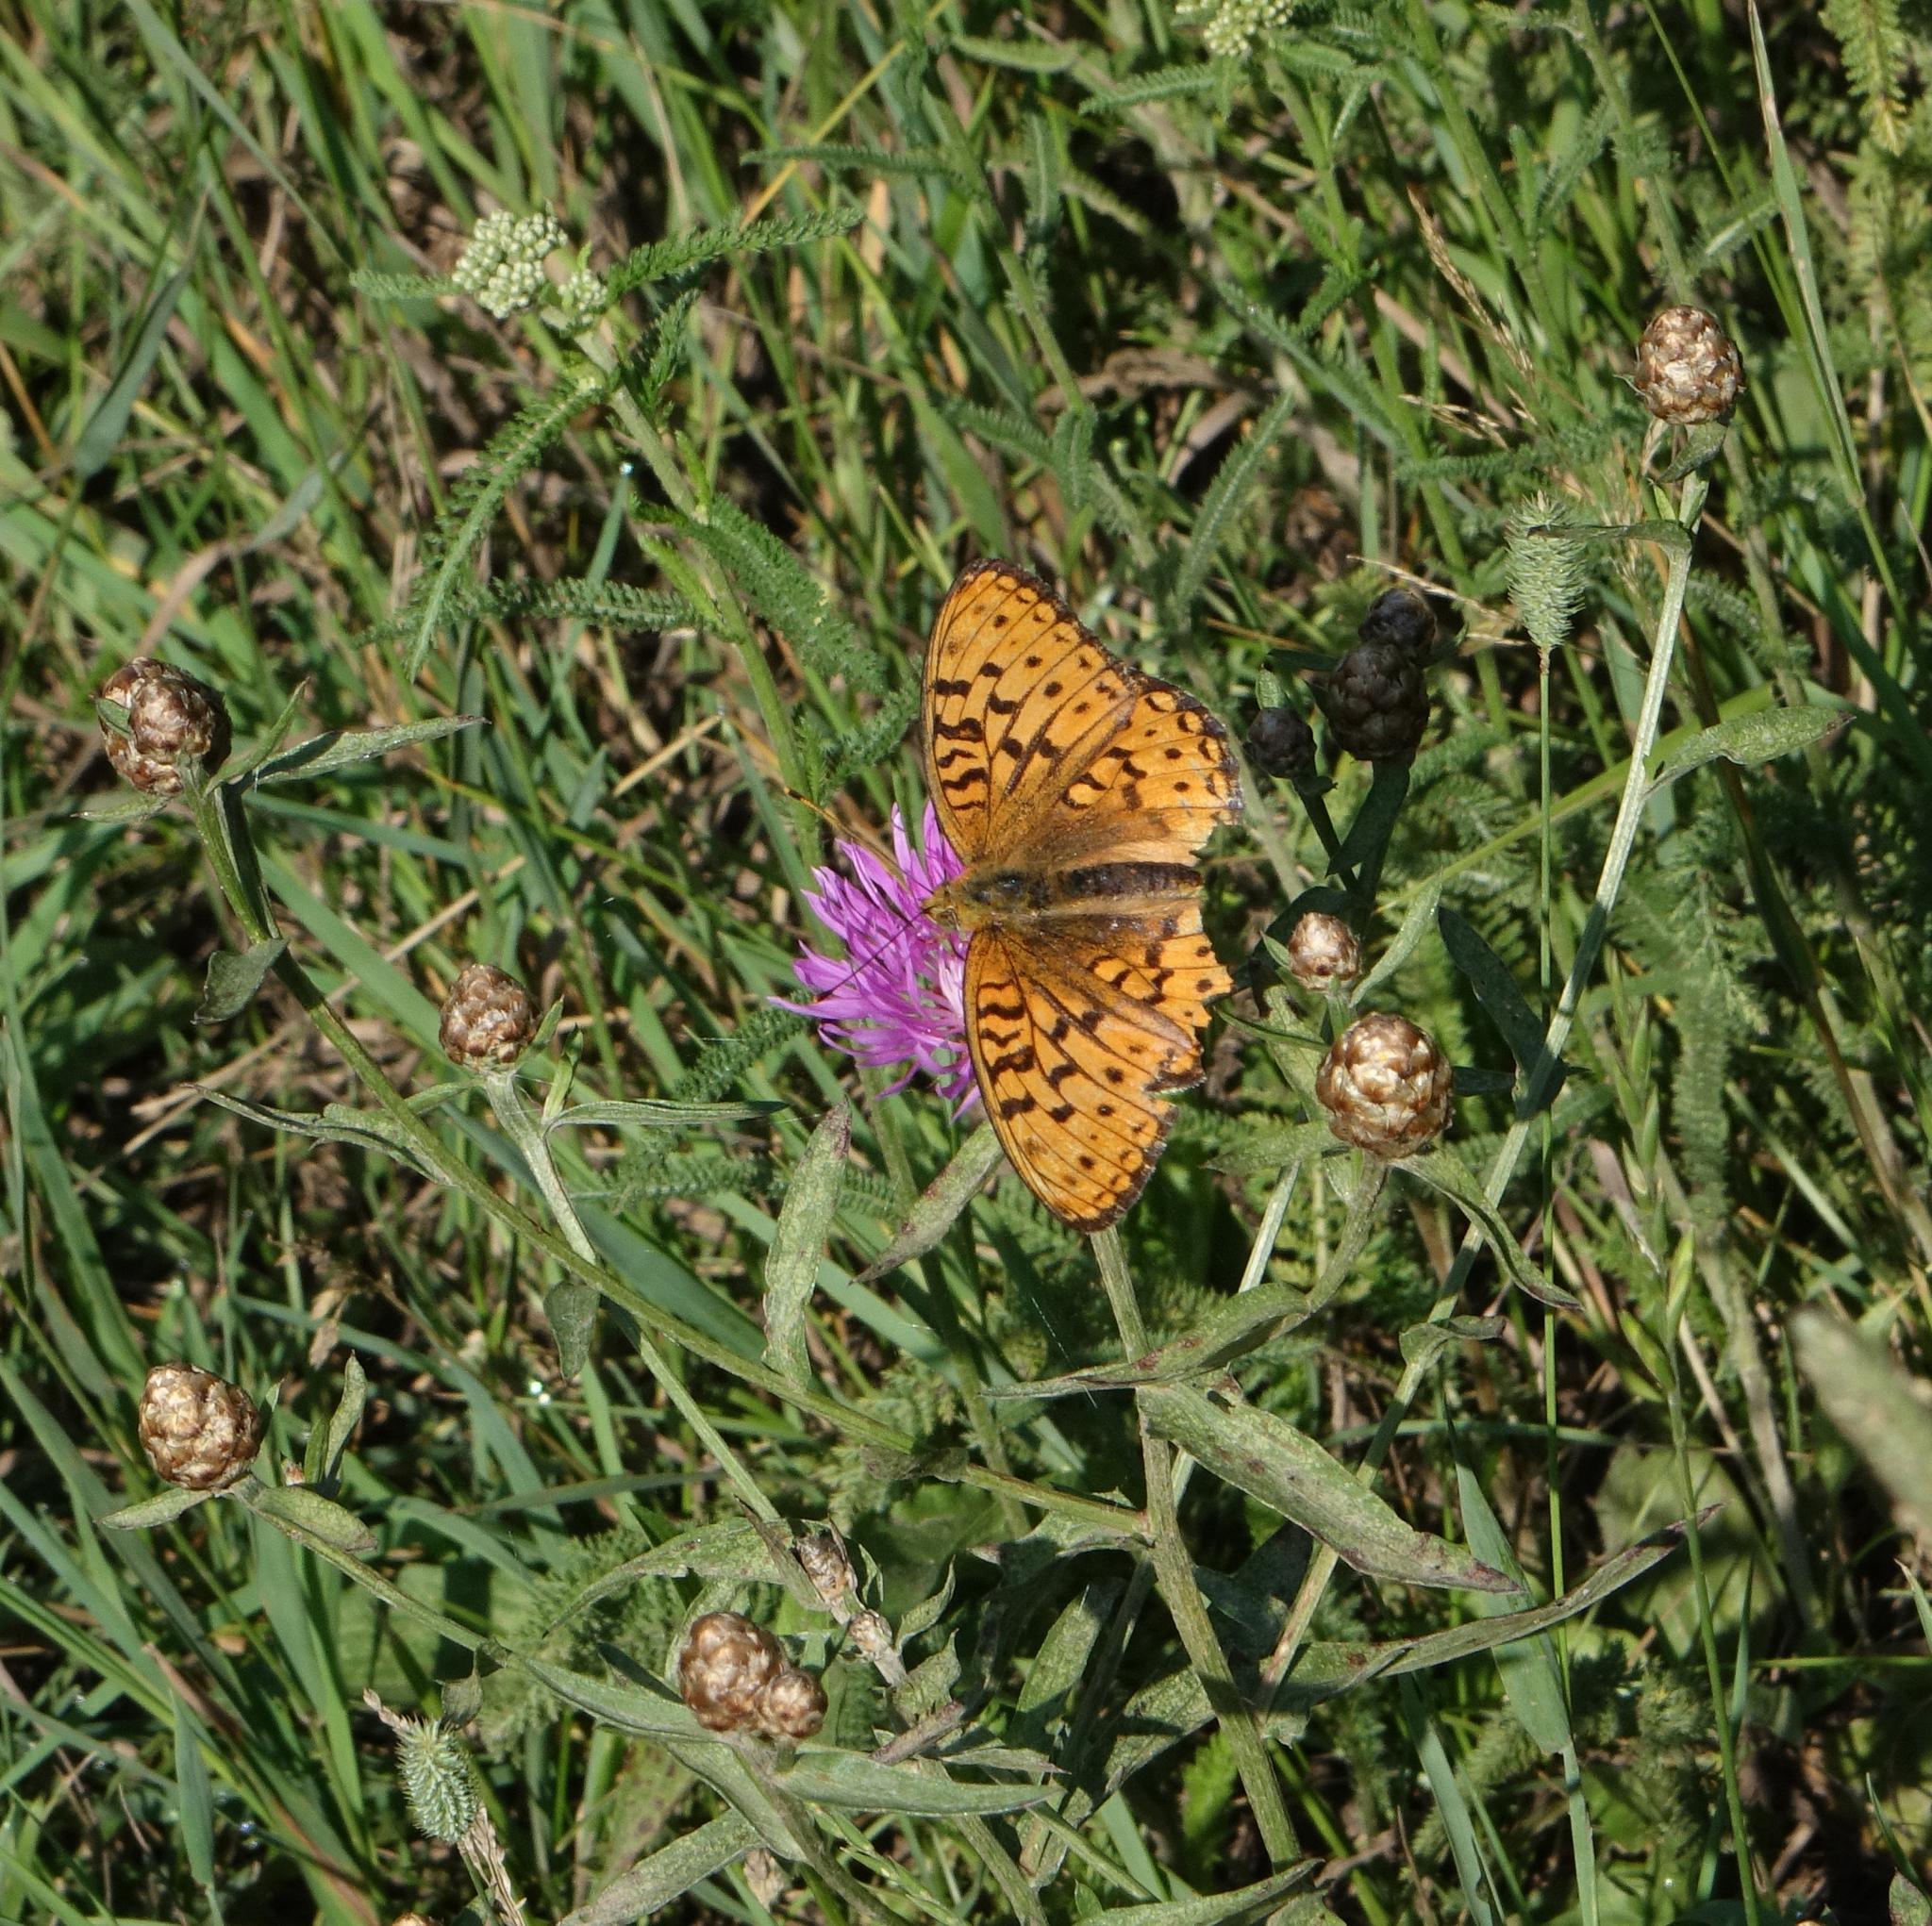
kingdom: Plantae
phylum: Tracheophyta
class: Magnoliopsida
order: Asterales
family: Asteraceae
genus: Centaurea
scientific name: Centaurea jacea
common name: Brown knapweed
